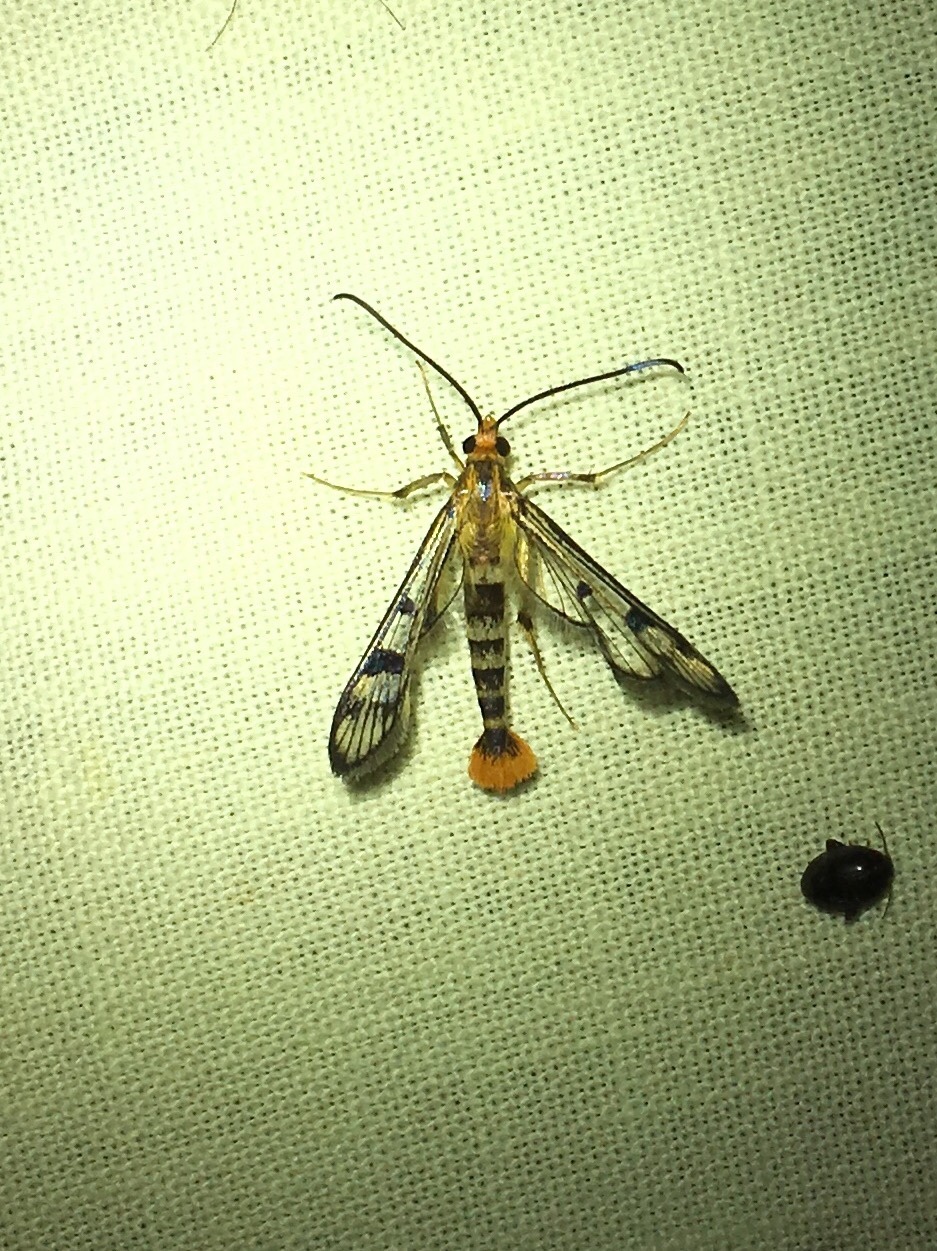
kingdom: Animalia
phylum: Arthropoda
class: Insecta
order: Lepidoptera
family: Sesiidae
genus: Synanthedon
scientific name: Synanthedon acerni
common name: Maple callus borer moth
